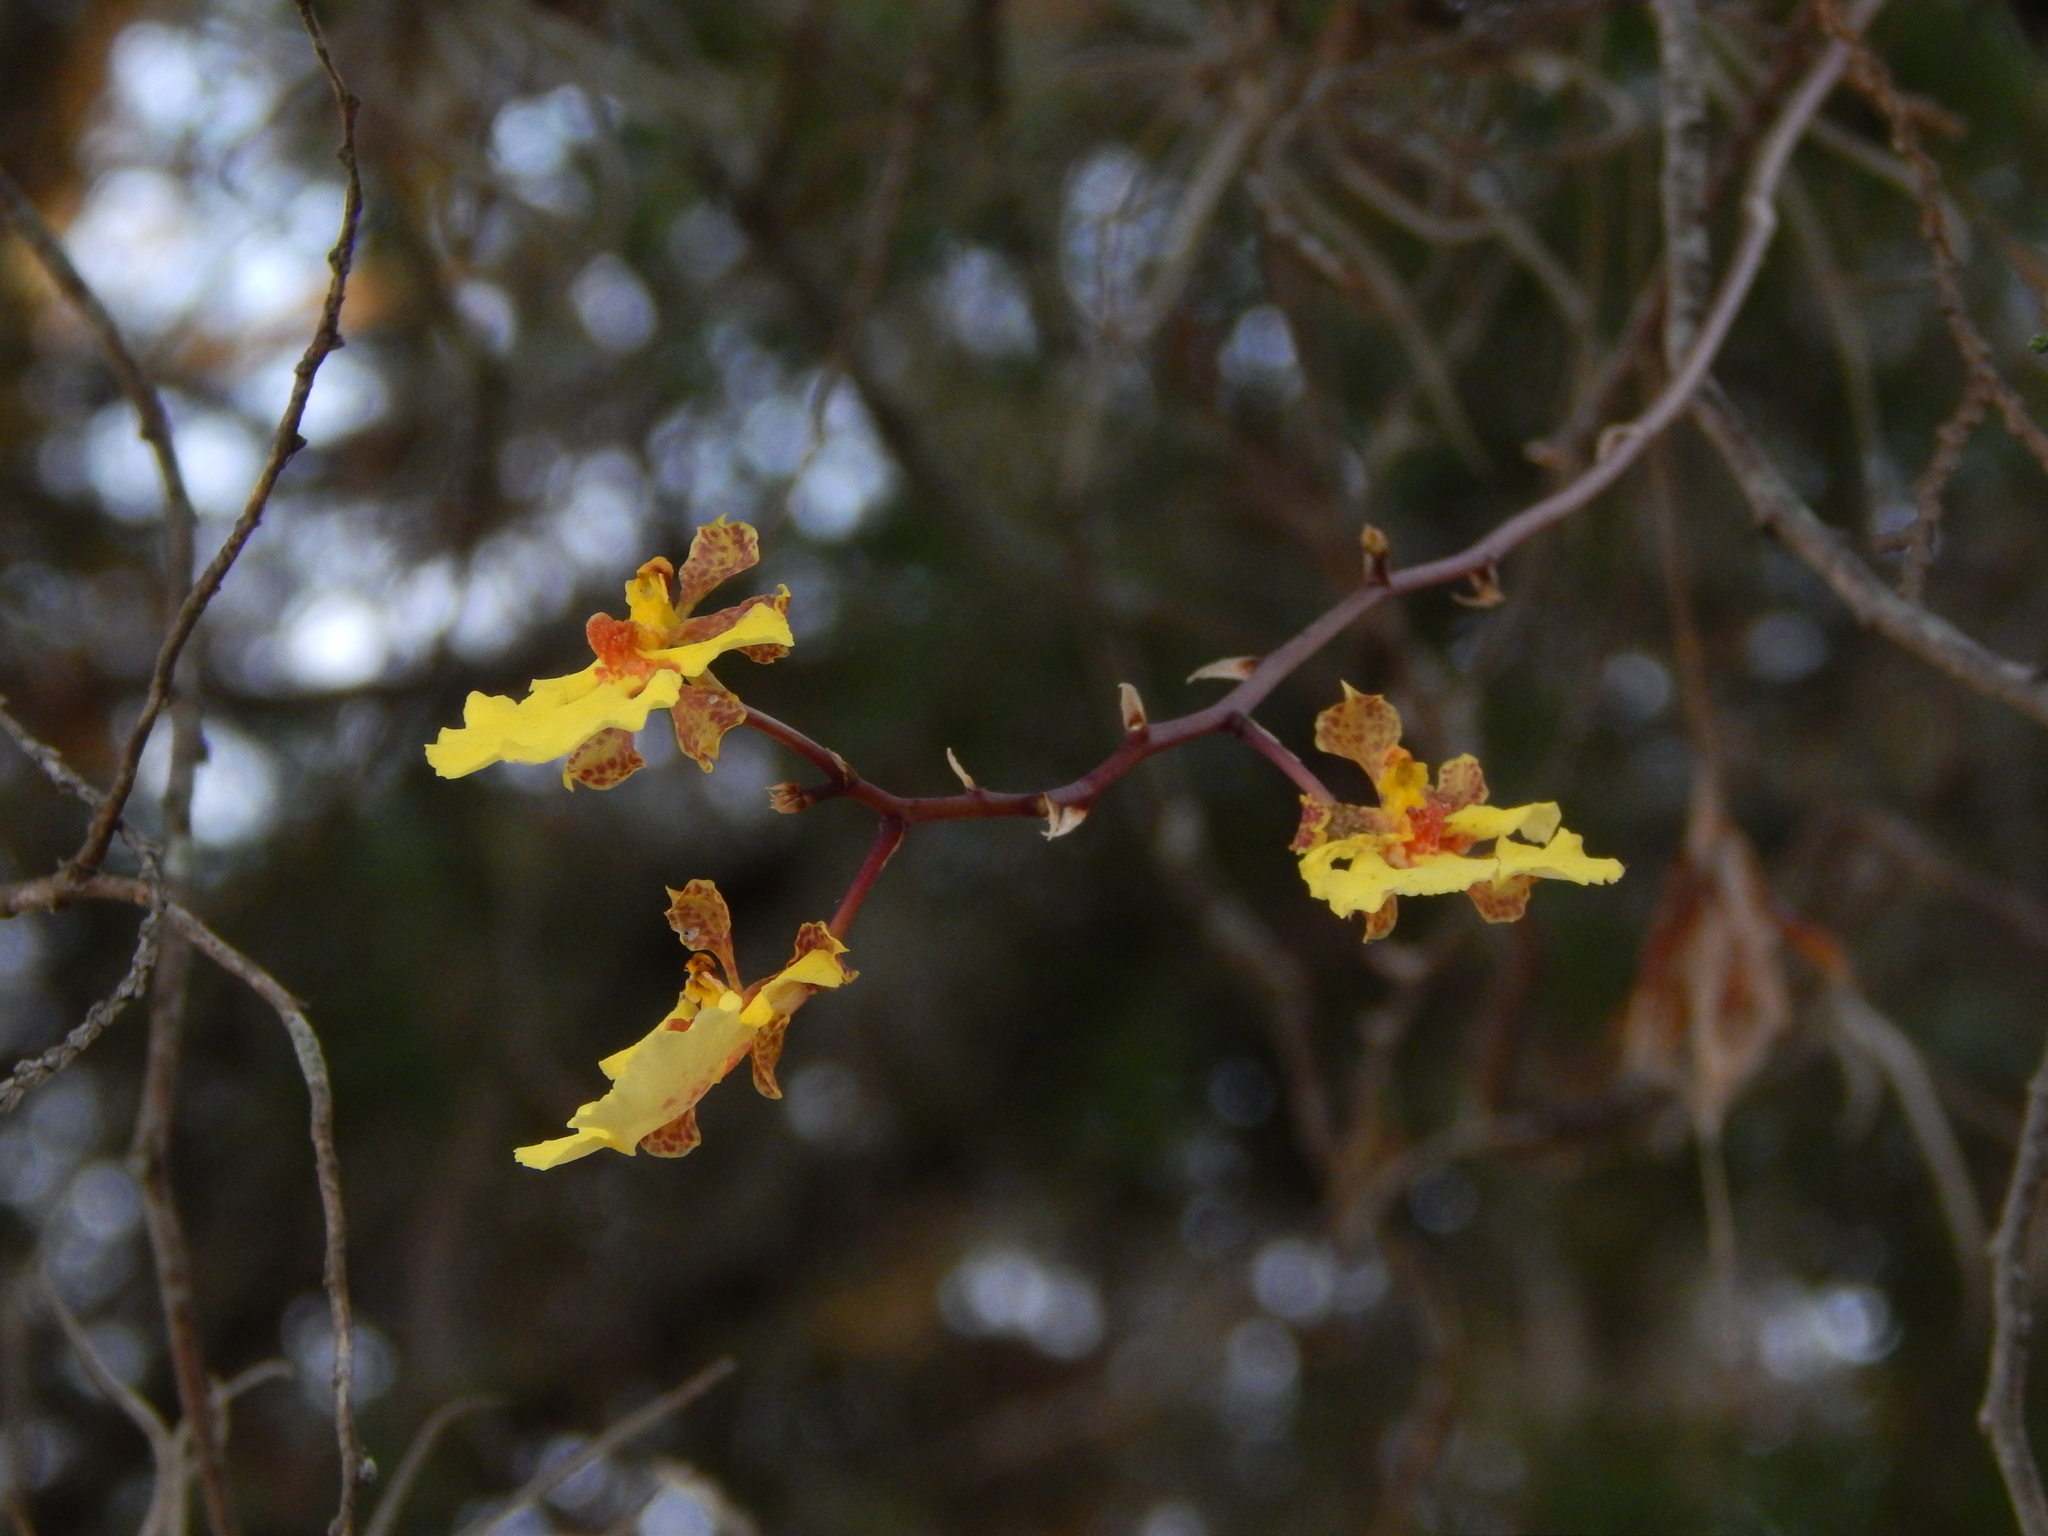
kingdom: Plantae
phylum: Tracheophyta
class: Liliopsida
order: Asparagales
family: Orchidaceae
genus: Trichocentrum
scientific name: Trichocentrum biorbiculare
